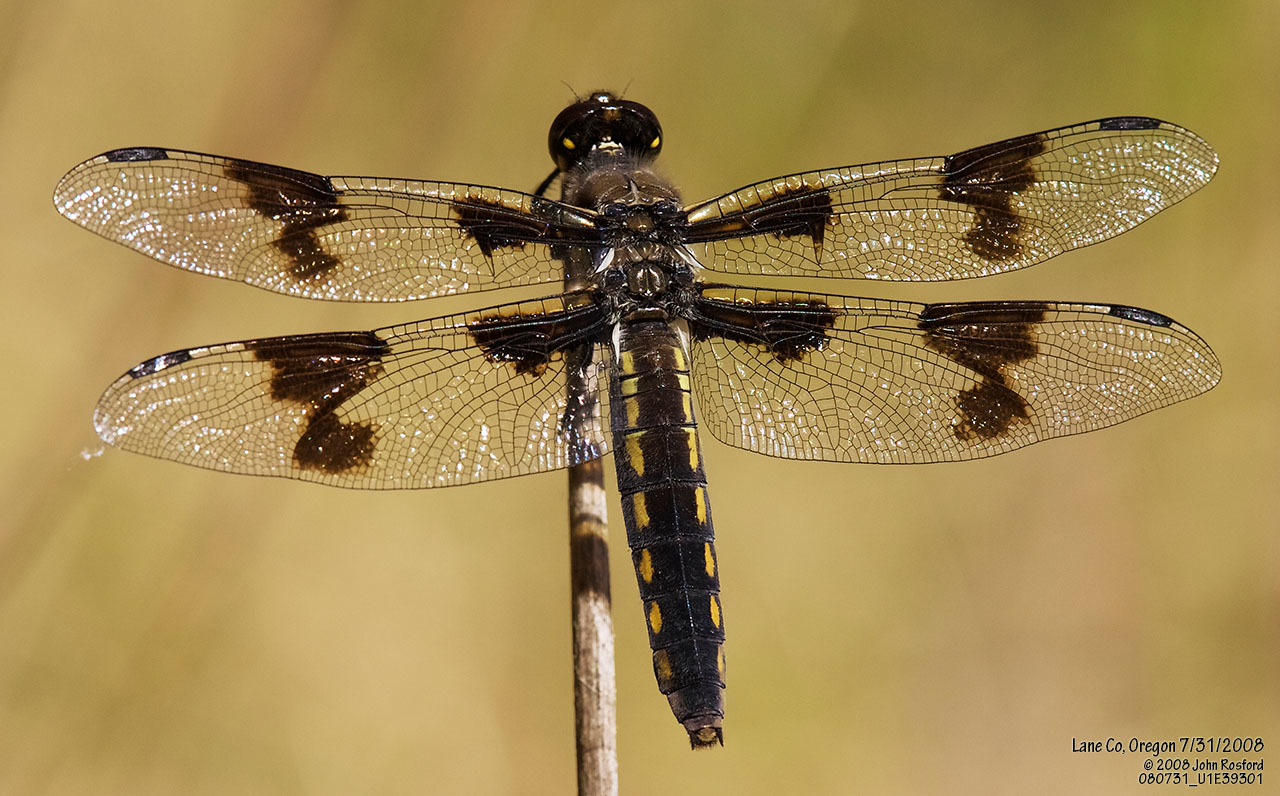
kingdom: Animalia
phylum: Arthropoda
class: Insecta
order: Odonata
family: Libellulidae
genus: Libellula
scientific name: Libellula forensis
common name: Eight-spotted skimmer
